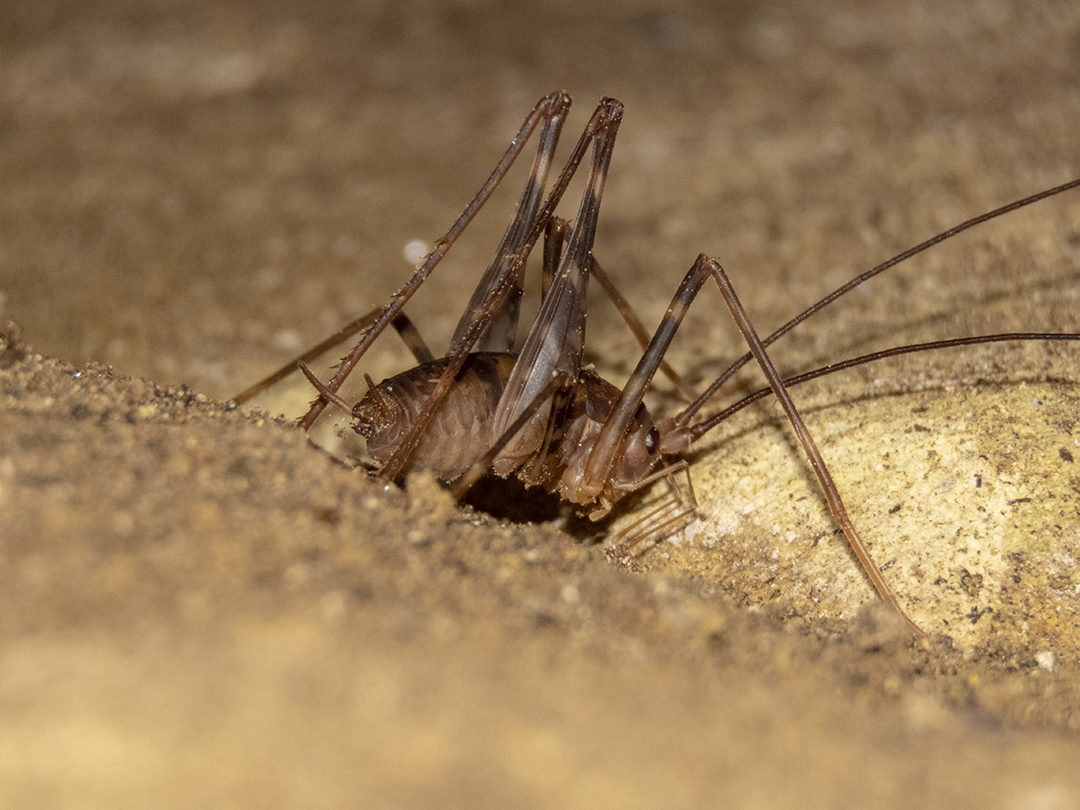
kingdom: Animalia
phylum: Arthropoda
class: Insecta
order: Orthoptera
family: Rhaphidophoridae
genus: Miotopus
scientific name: Miotopus richardsae
